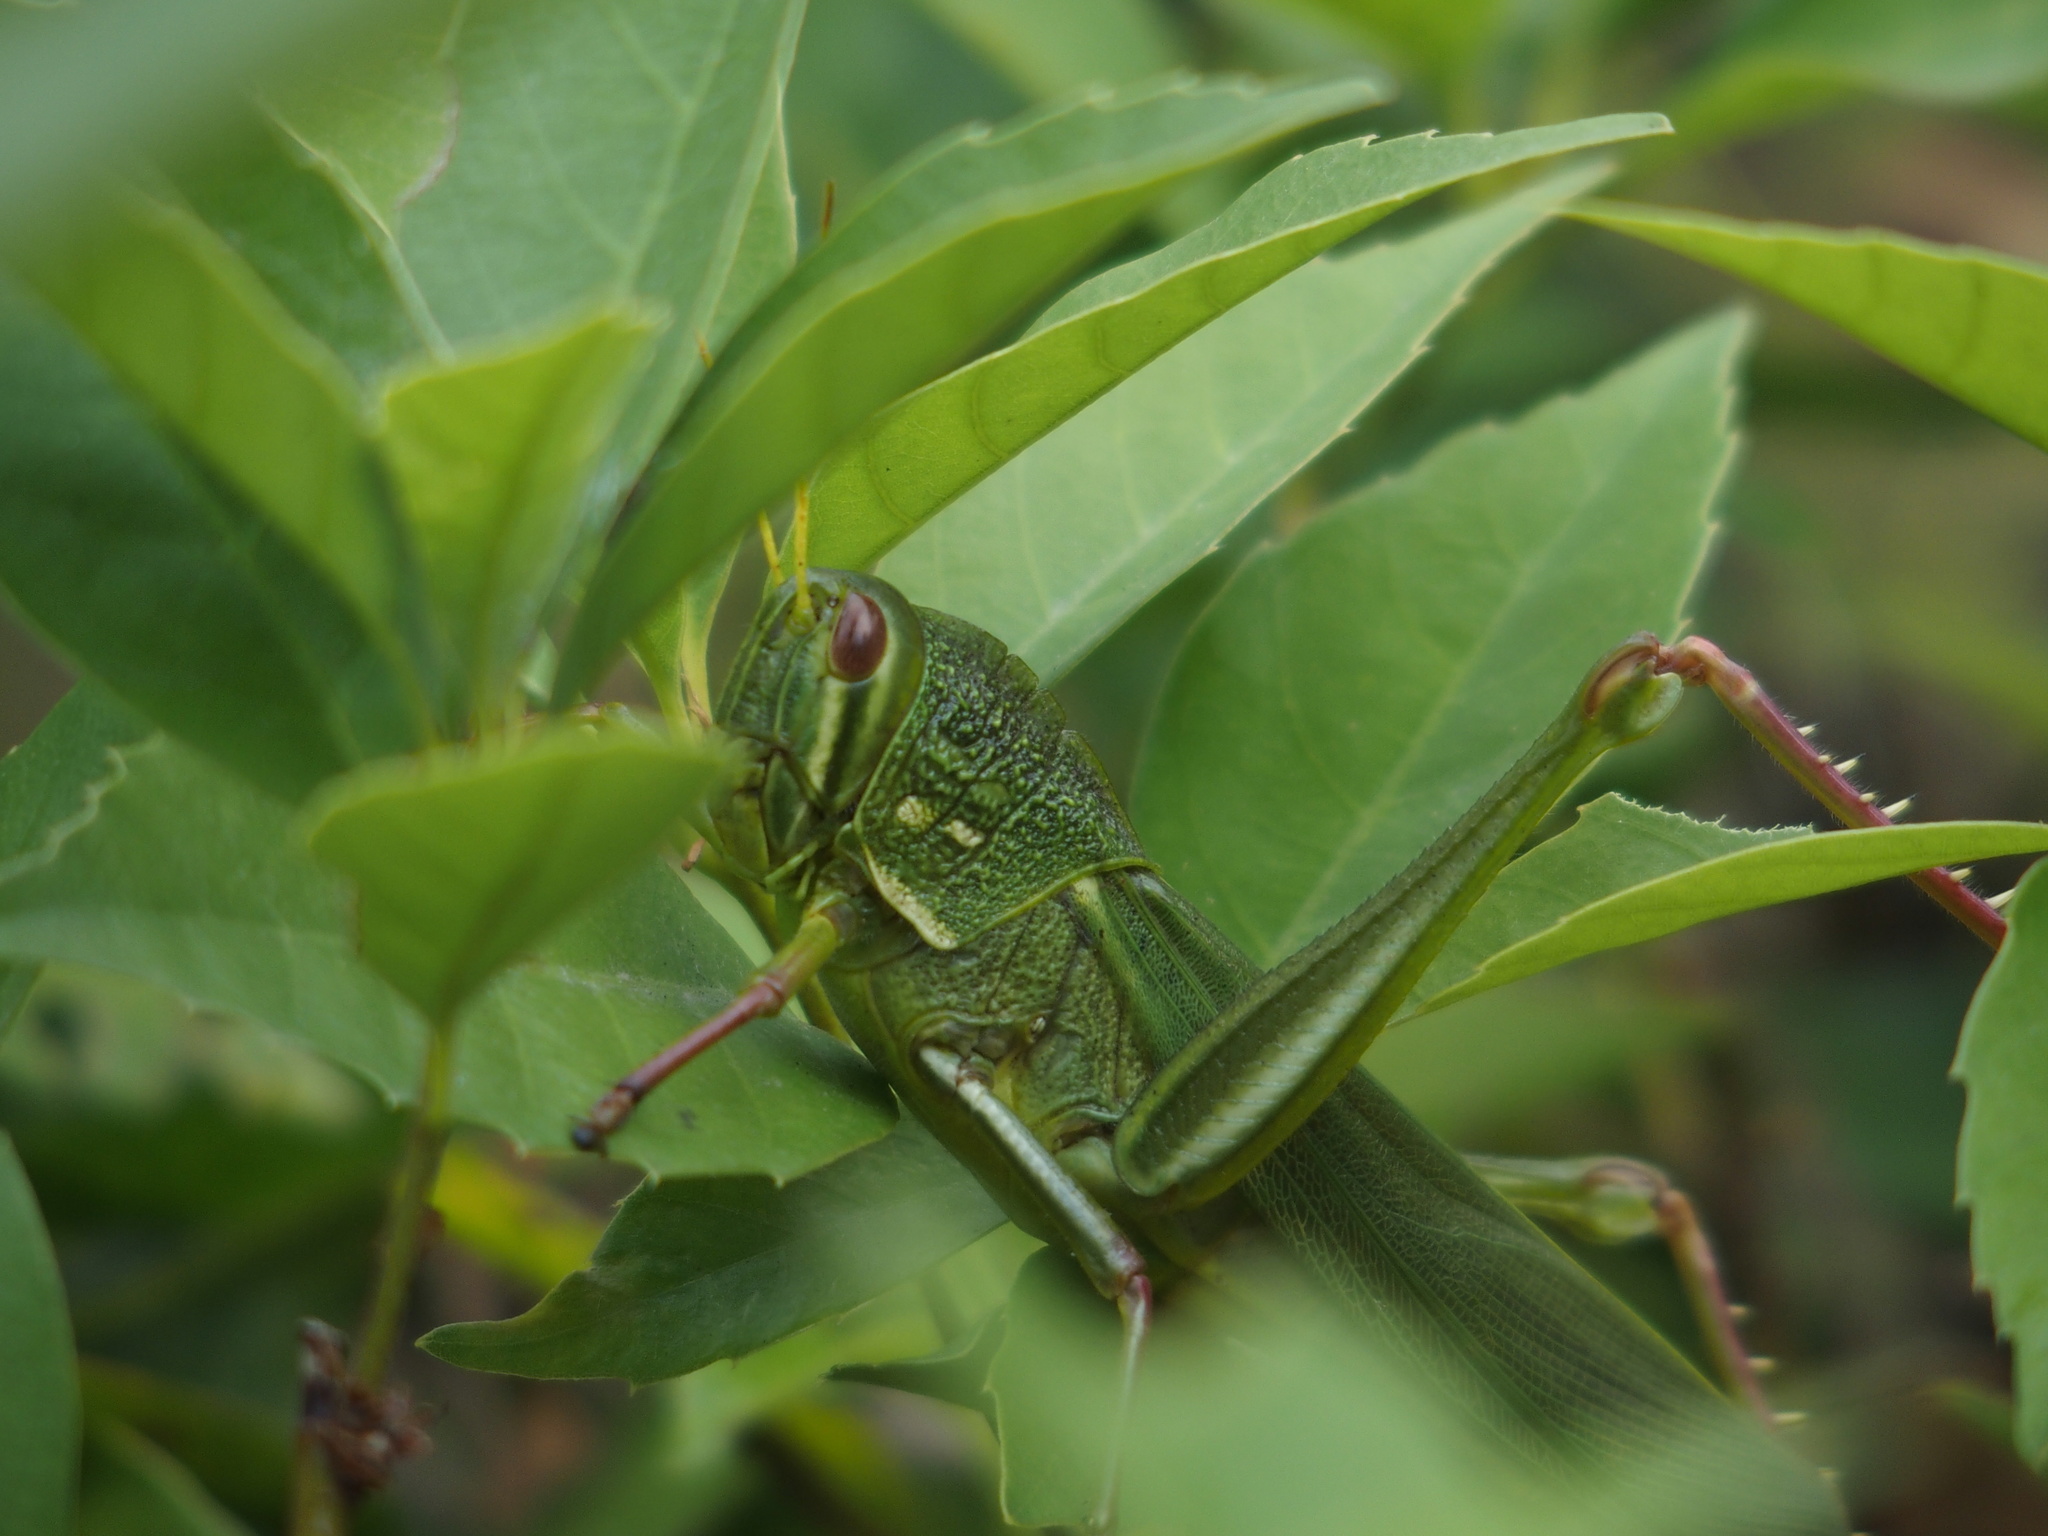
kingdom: Animalia
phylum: Arthropoda
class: Insecta
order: Orthoptera
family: Acrididae
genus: Chondracris
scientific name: Chondracris rosea
